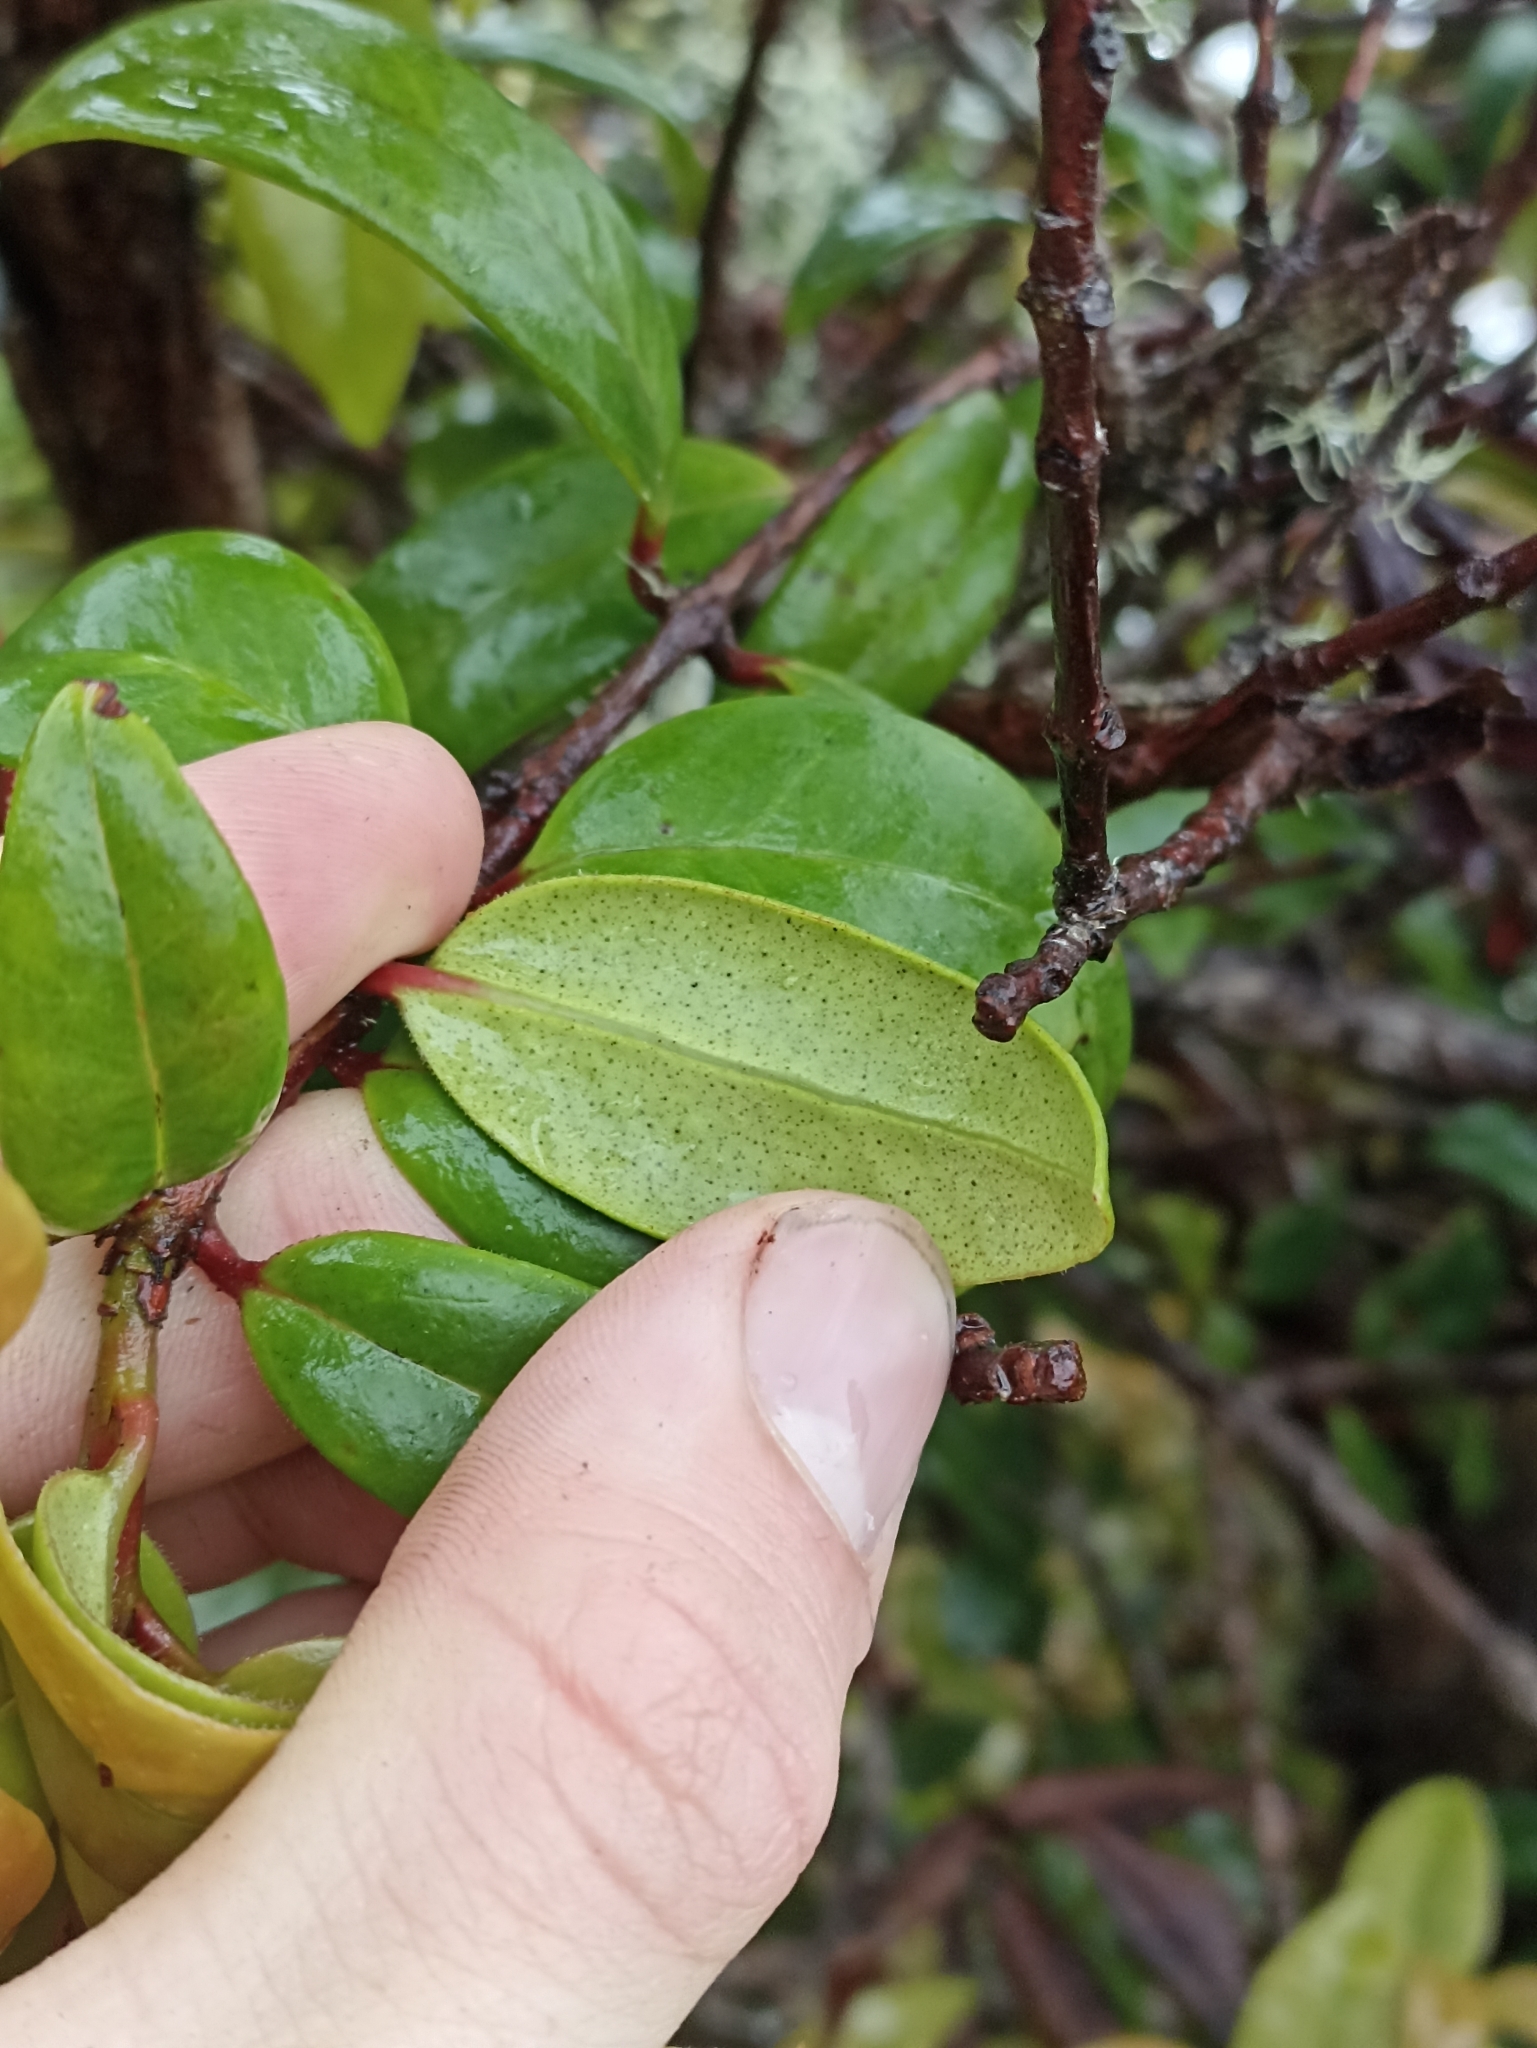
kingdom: Plantae
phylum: Tracheophyta
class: Magnoliopsida
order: Myrtales
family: Myrtaceae
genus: Metrosideros
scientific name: Metrosideros albiflora
